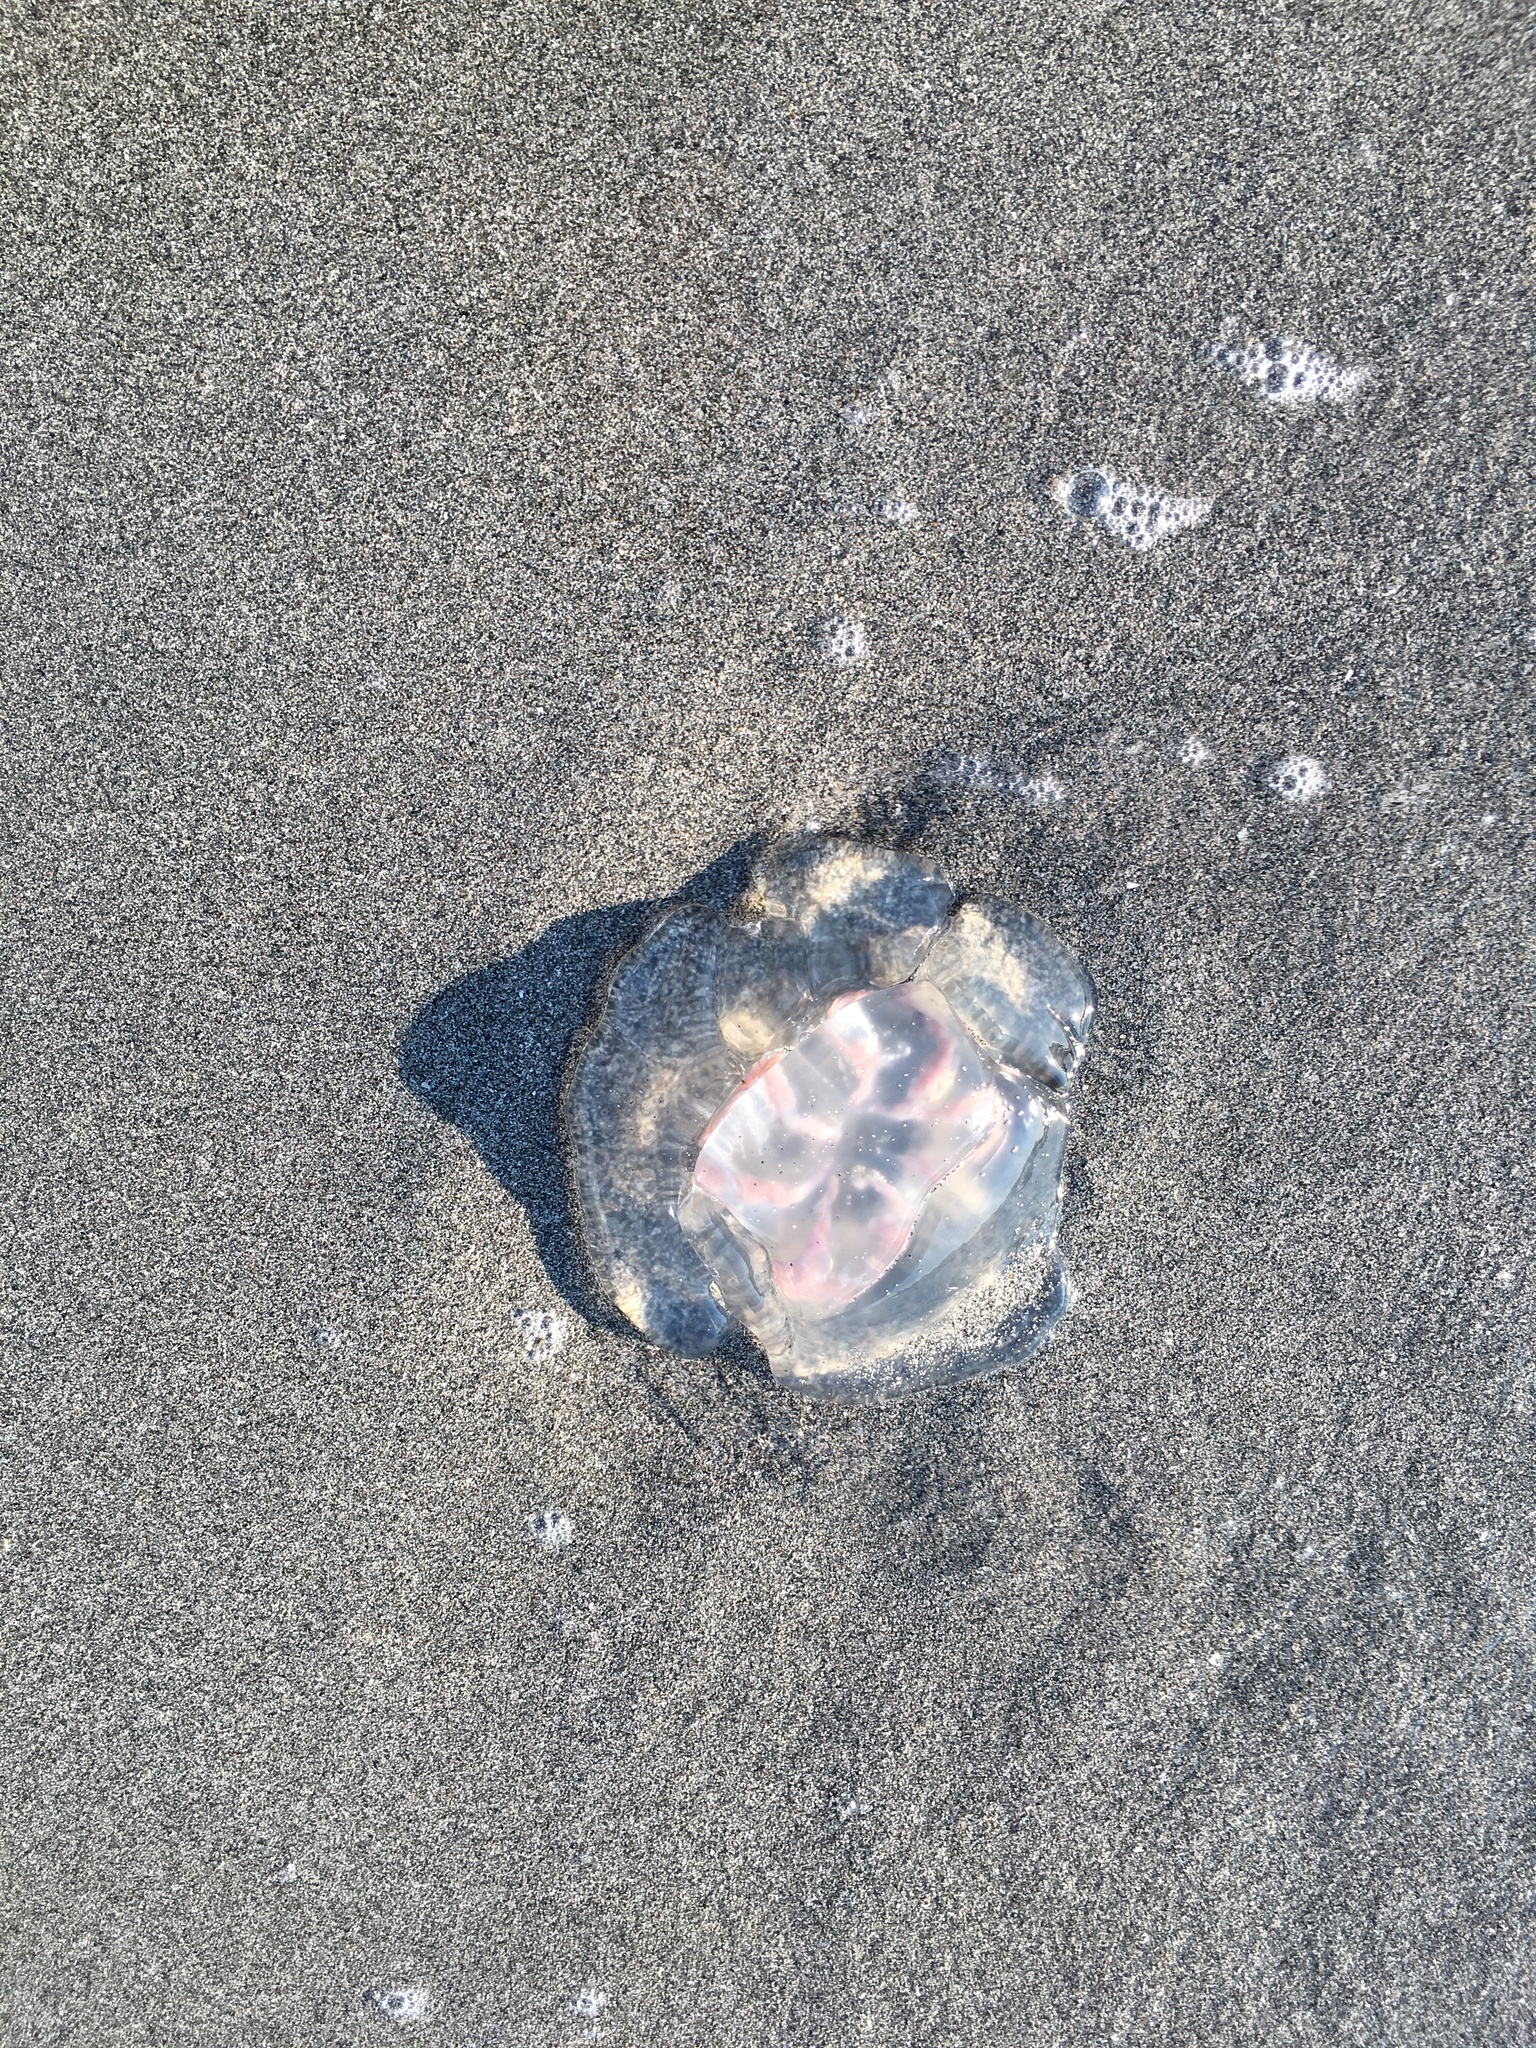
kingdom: Animalia
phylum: Cnidaria
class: Scyphozoa
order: Semaeostomeae
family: Ulmaridae
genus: Aurelia
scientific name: Aurelia marginalis
